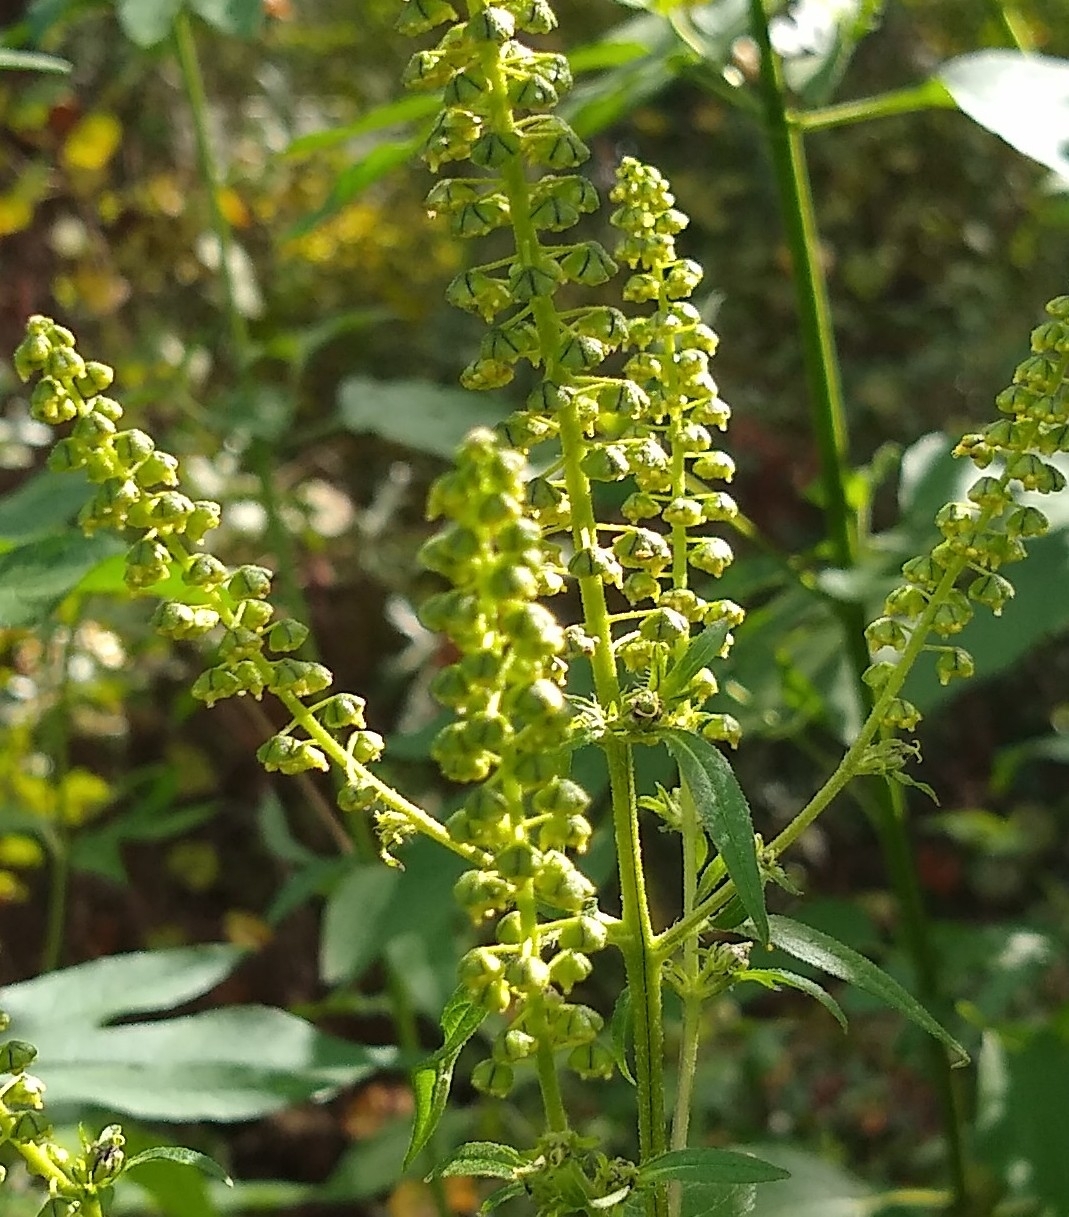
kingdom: Plantae
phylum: Tracheophyta
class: Magnoliopsida
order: Asterales
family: Asteraceae
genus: Ambrosia
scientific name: Ambrosia trifida
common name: Giant ragweed
